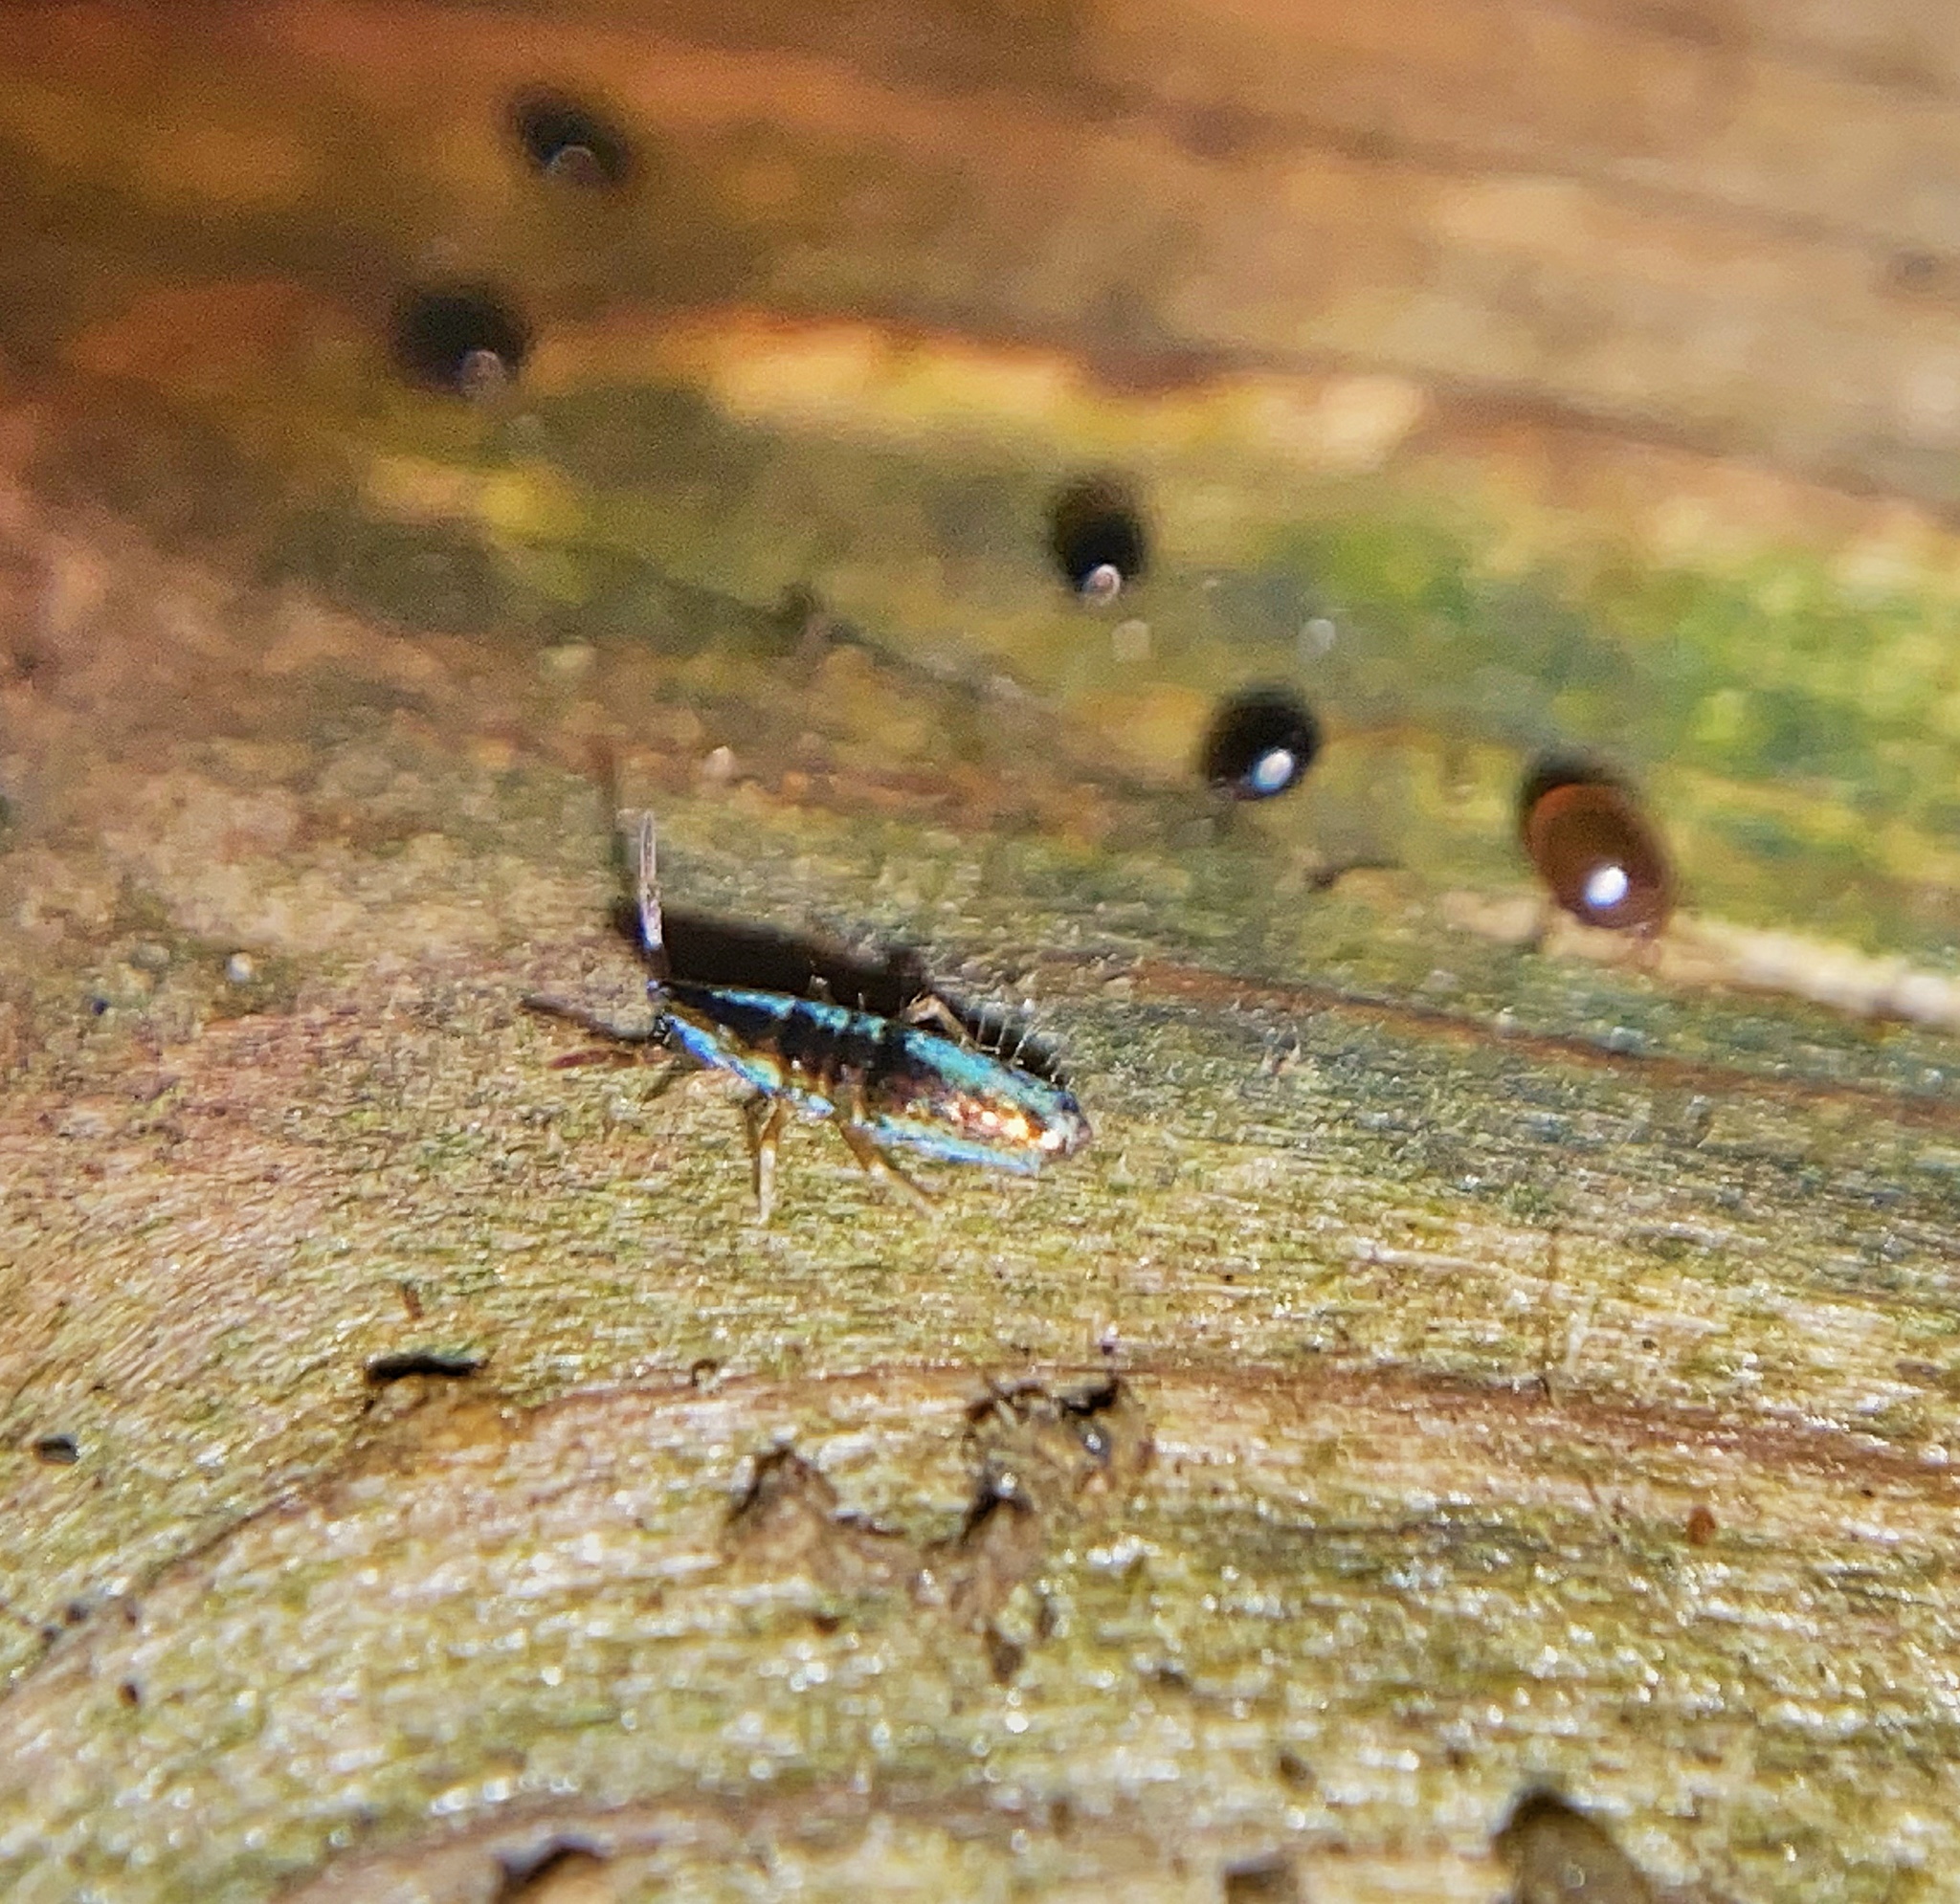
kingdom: Animalia
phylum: Arthropoda
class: Collembola
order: Entomobryomorpha
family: Entomobryidae
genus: Lepidocyrtus
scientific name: Lepidocyrtus paradoxus
